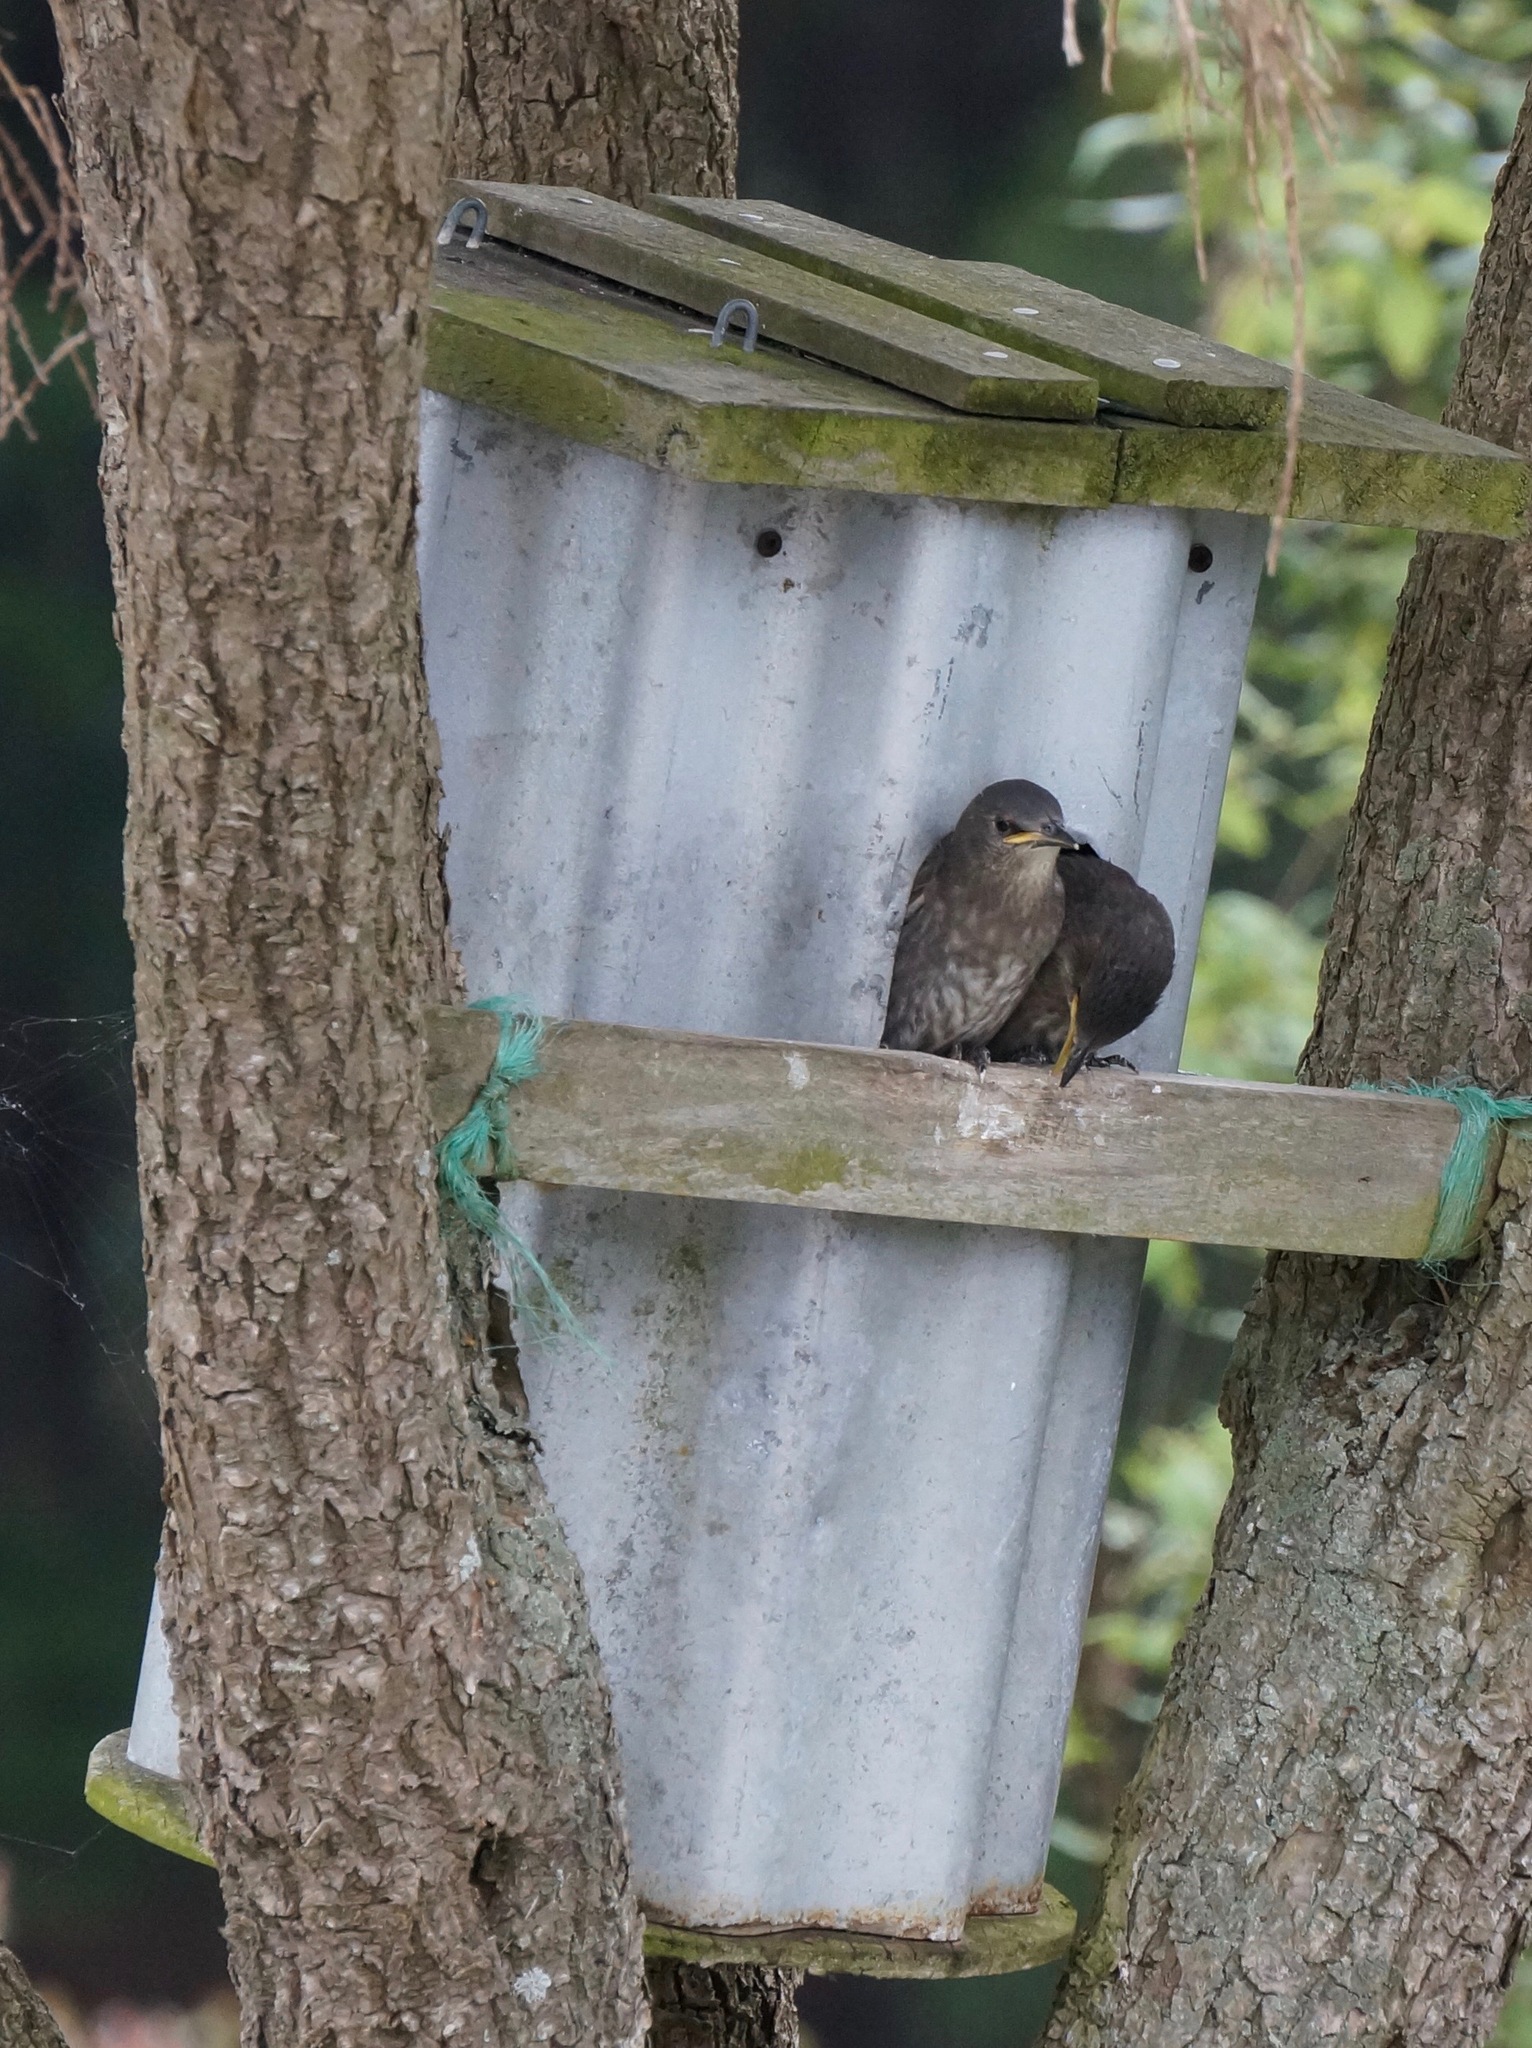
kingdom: Animalia
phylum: Chordata
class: Aves
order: Passeriformes
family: Sturnidae
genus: Sturnus
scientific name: Sturnus vulgaris
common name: Common starling
